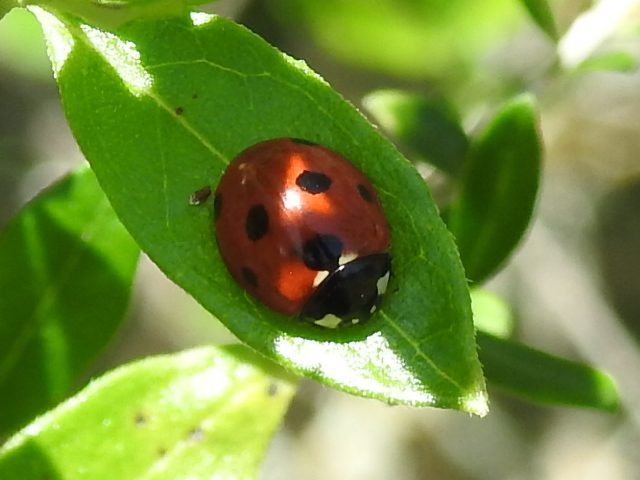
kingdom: Animalia
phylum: Arthropoda
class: Insecta
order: Coleoptera
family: Coccinellidae
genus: Coccinella
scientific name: Coccinella septempunctata
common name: Sevenspotted lady beetle
